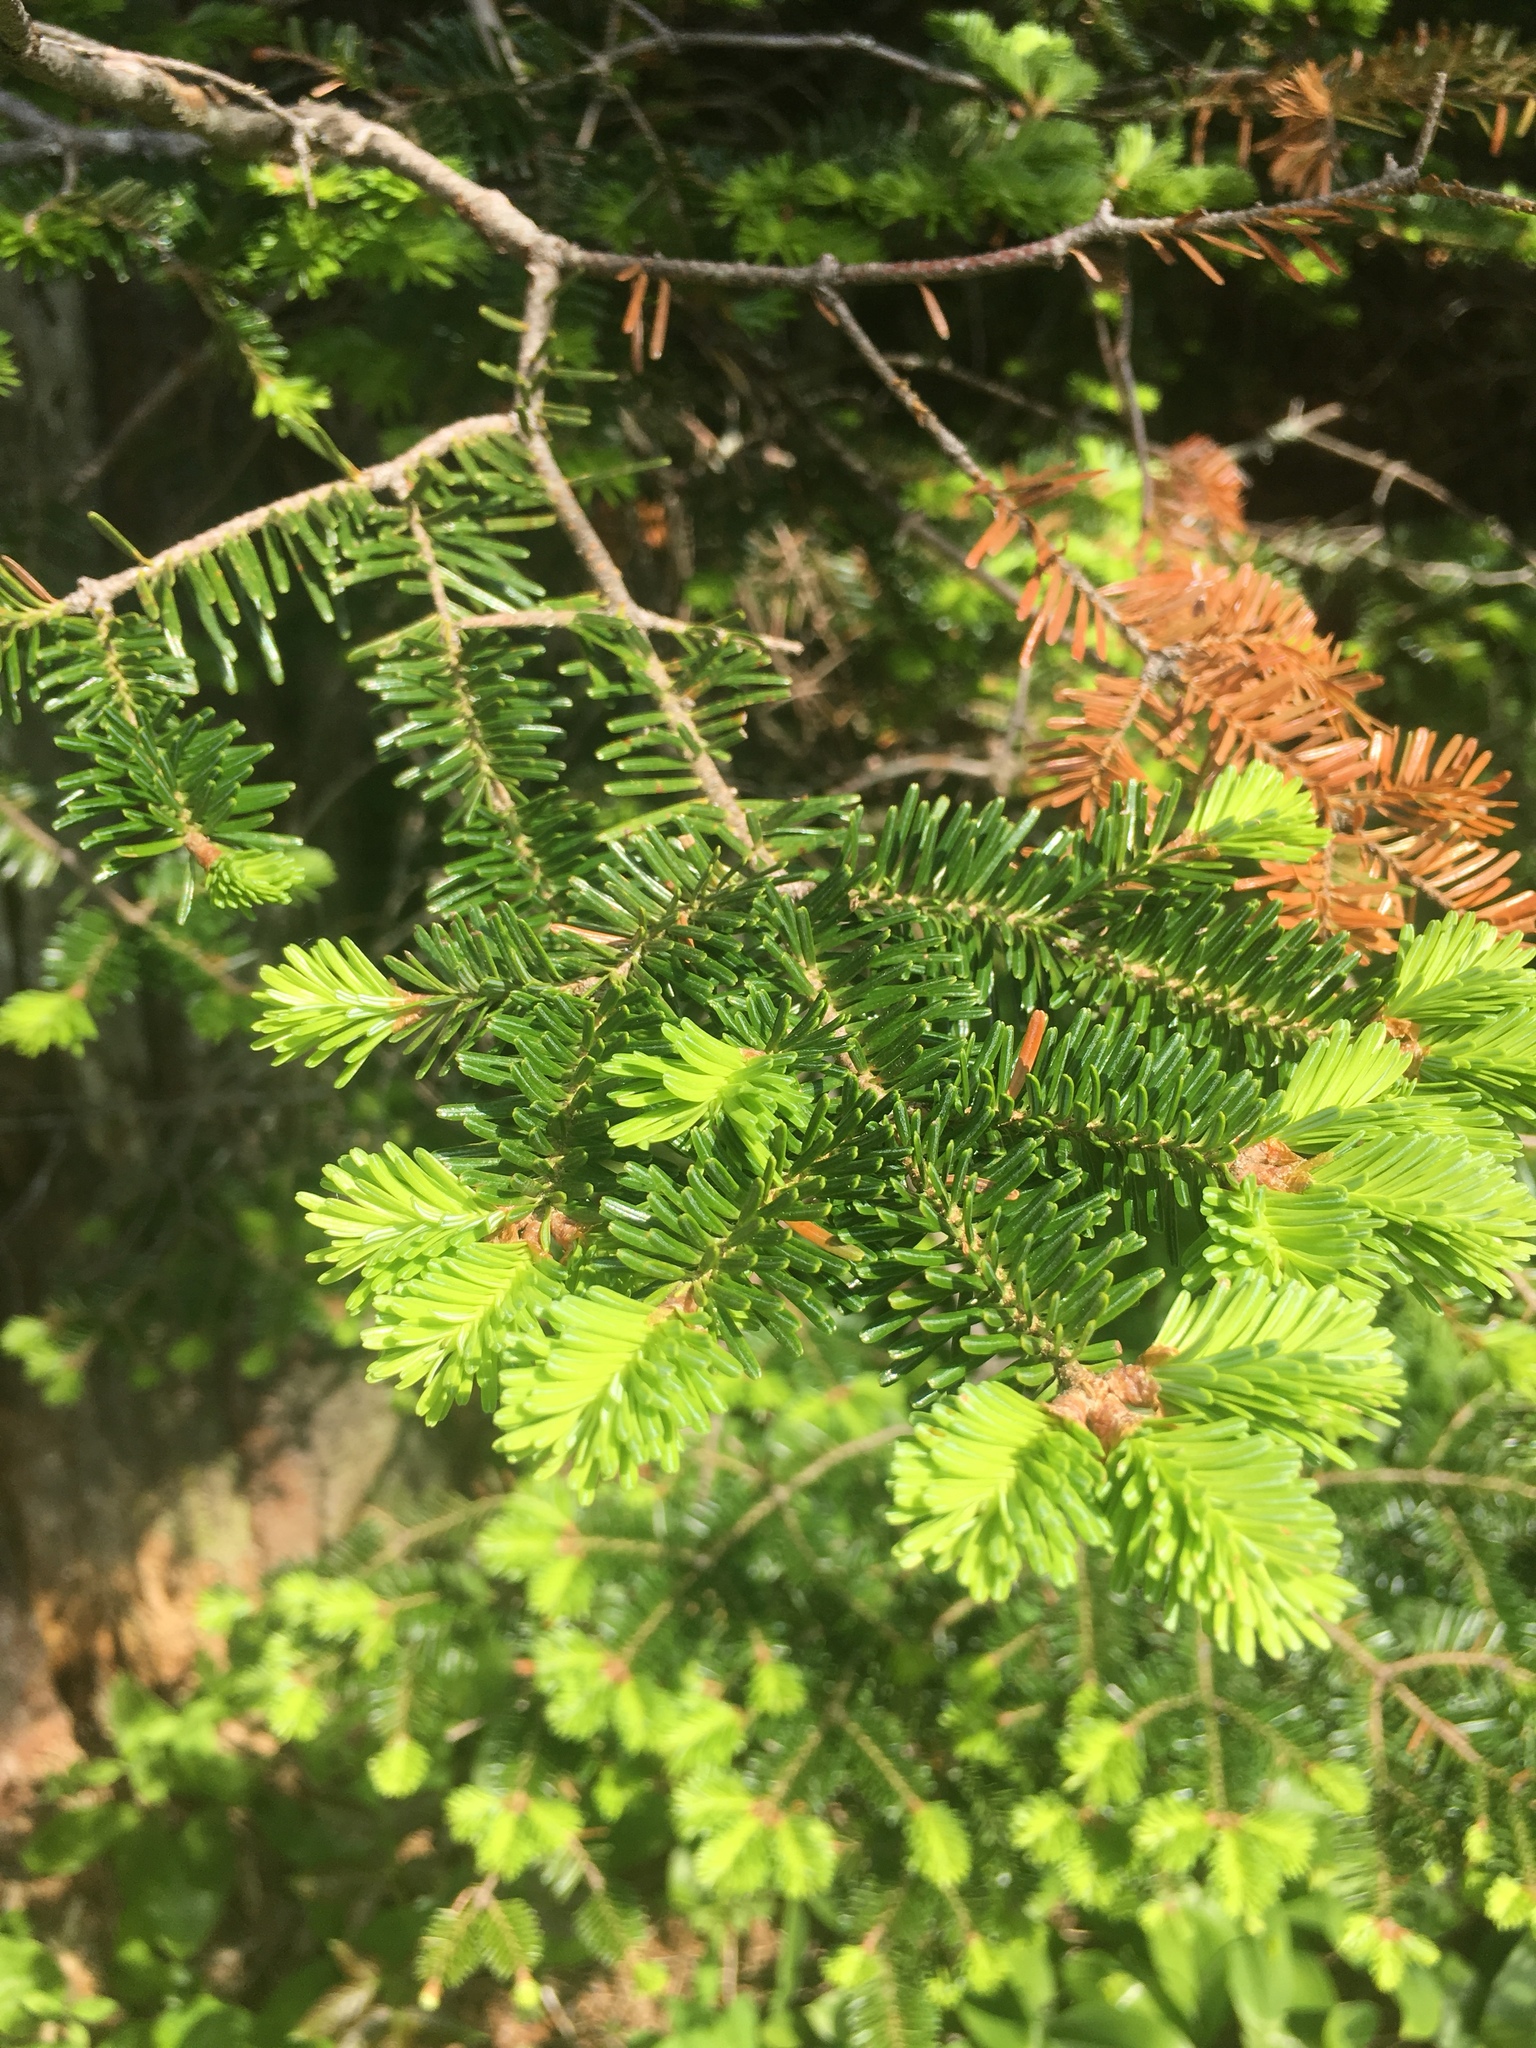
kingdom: Plantae
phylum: Tracheophyta
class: Pinopsida
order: Pinales
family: Pinaceae
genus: Abies
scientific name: Abies balsamea
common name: Balsam fir
